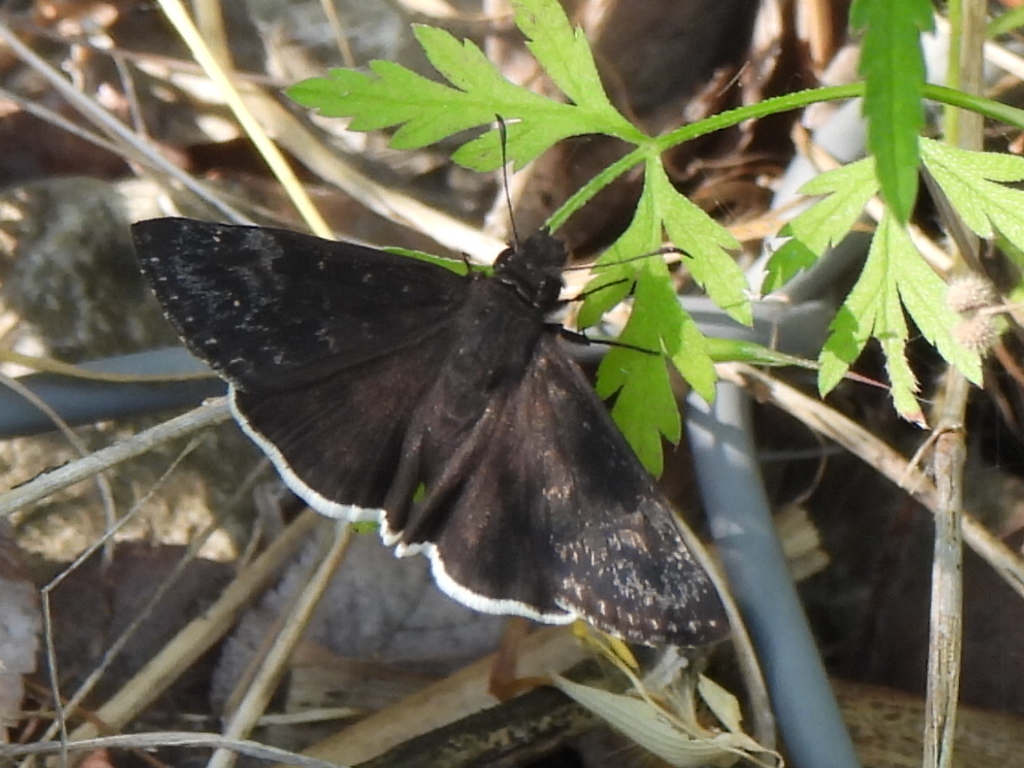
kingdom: Animalia
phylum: Arthropoda
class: Insecta
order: Lepidoptera
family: Hesperiidae
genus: Erynnis
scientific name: Erynnis funeralis
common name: Funereal duskywing
